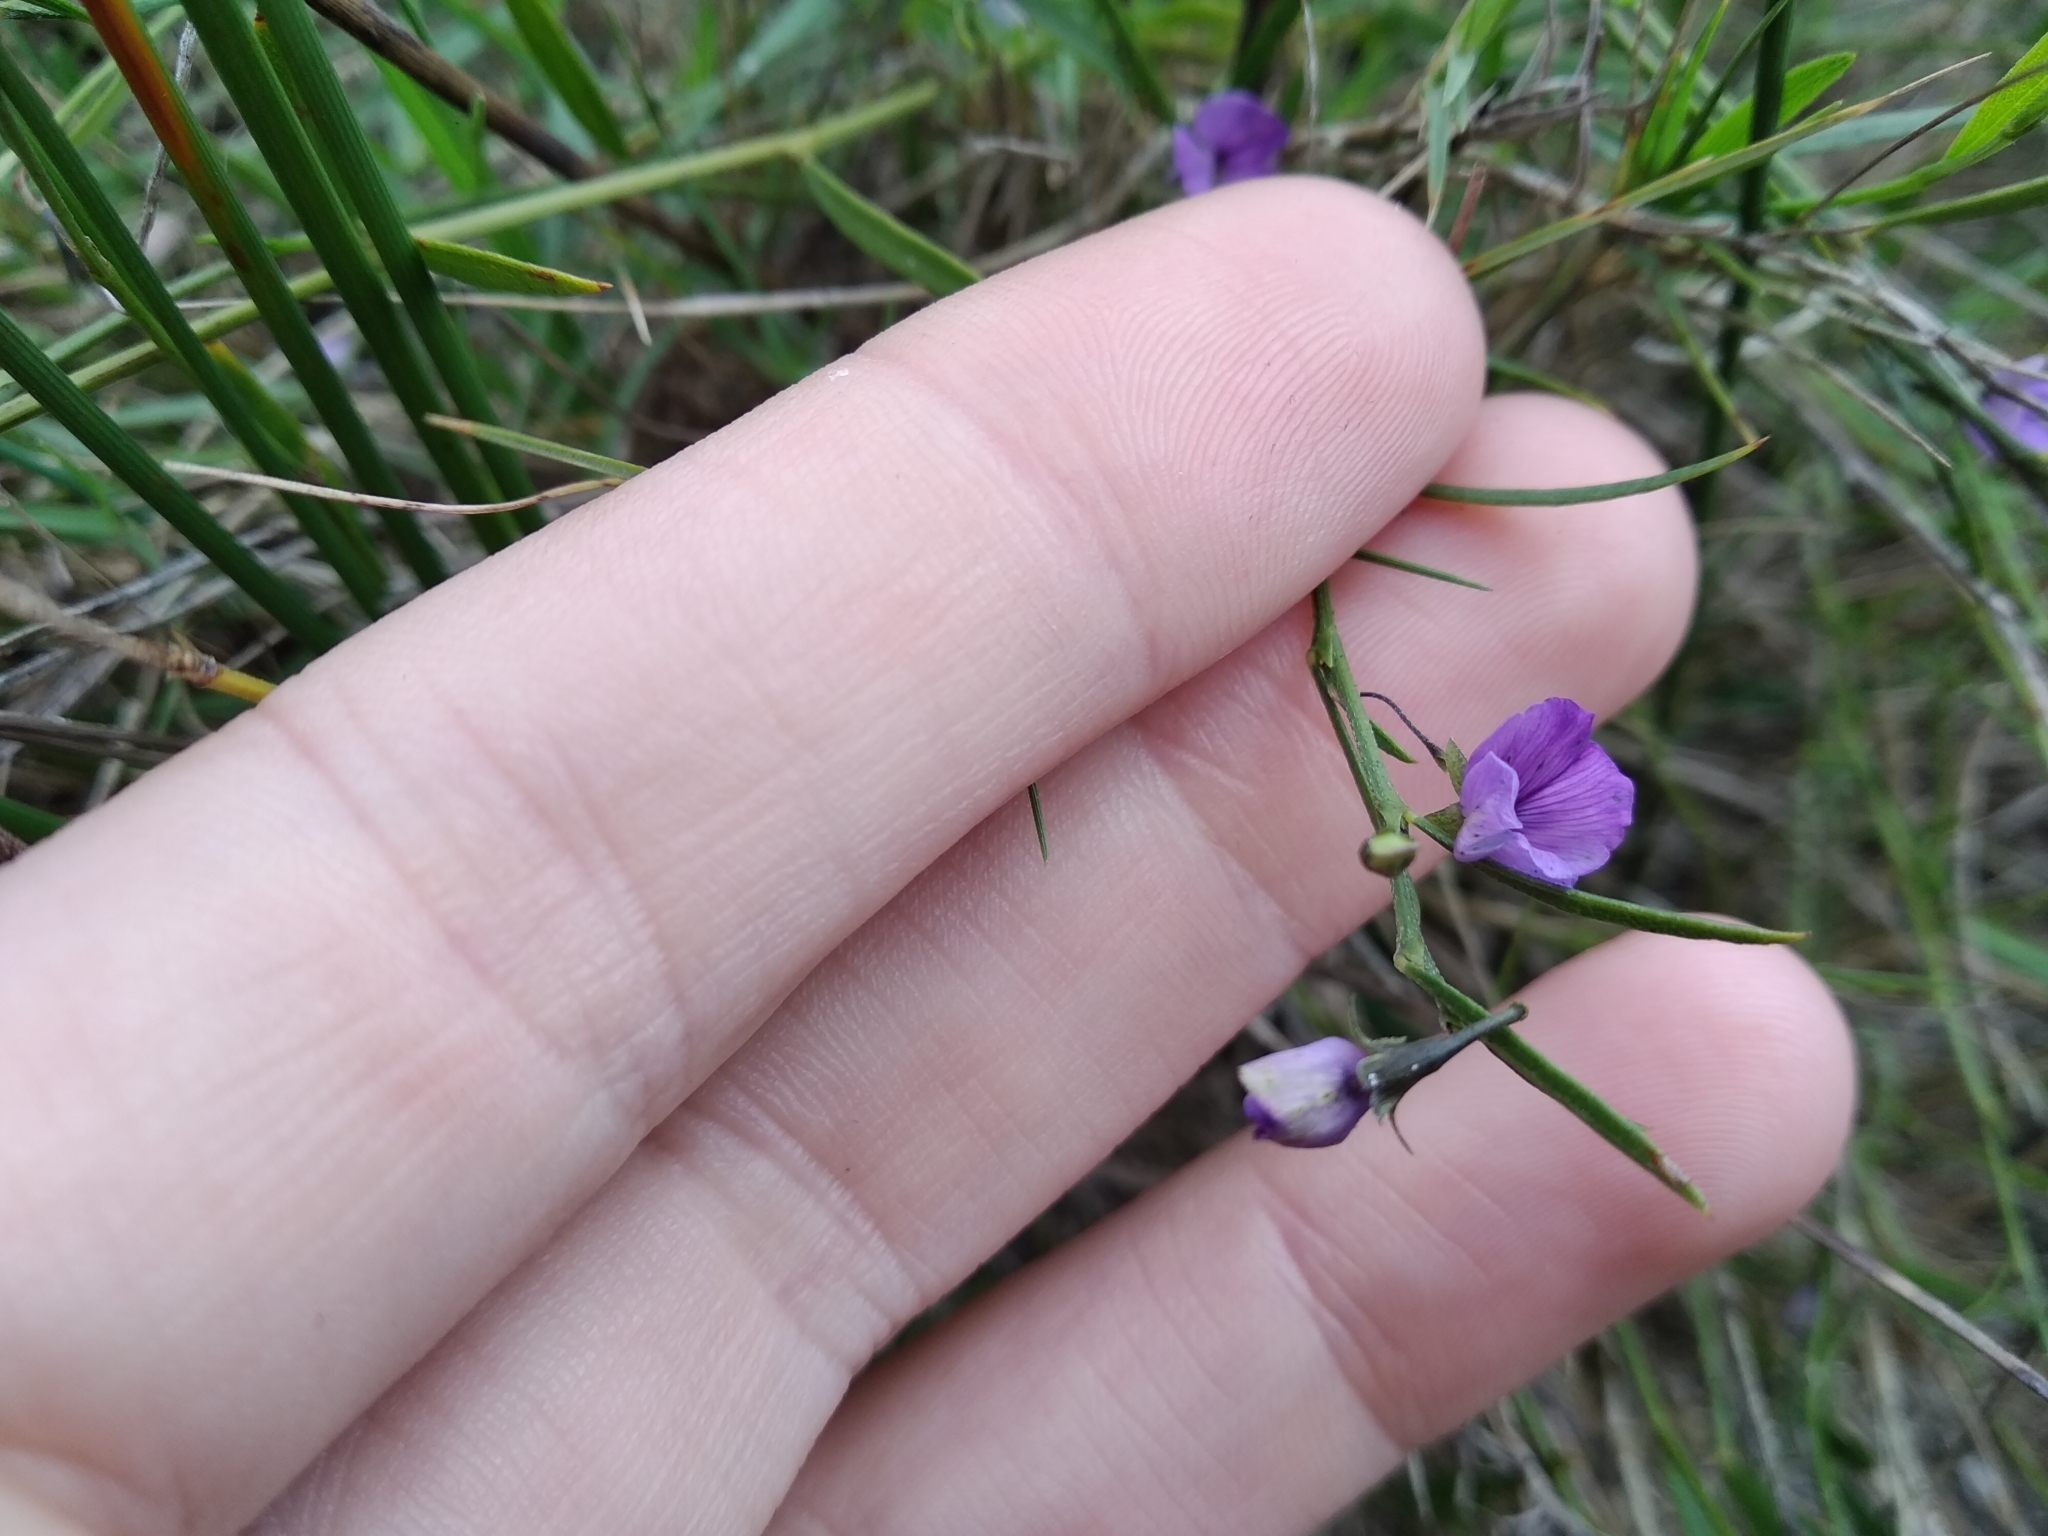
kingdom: Plantae
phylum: Tracheophyta
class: Magnoliopsida
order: Fabales
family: Fabaceae
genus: Psoralea
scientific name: Psoralea laxa
